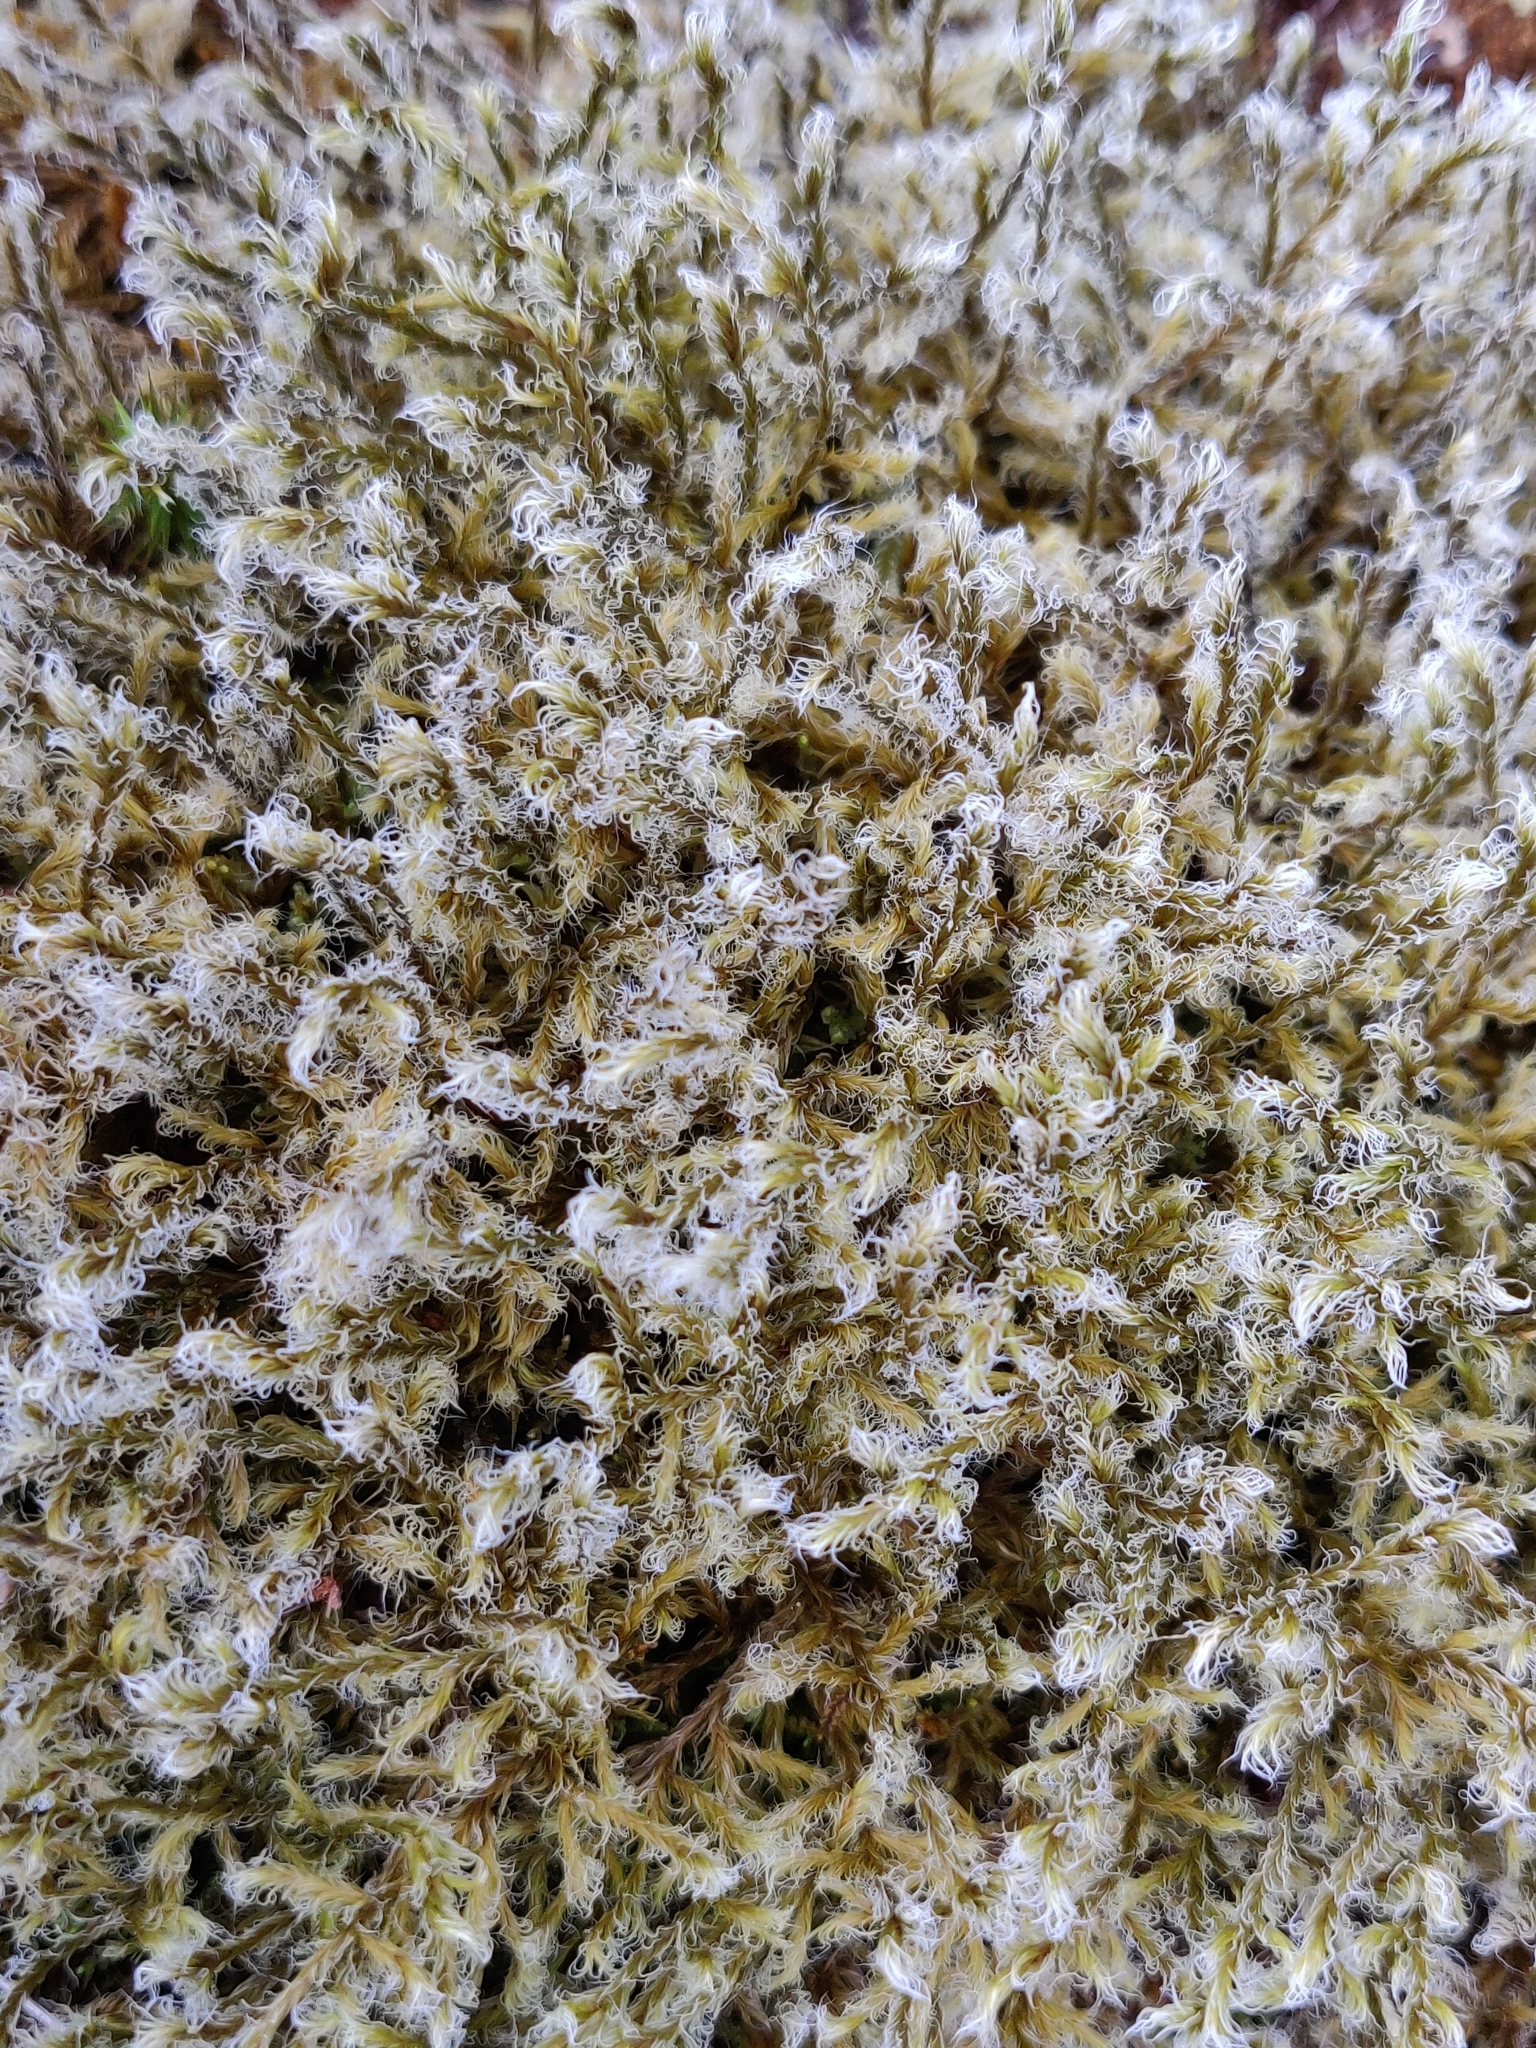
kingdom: Plantae
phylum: Bryophyta
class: Bryopsida
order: Grimmiales
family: Grimmiaceae
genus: Racomitrium
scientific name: Racomitrium lanuginosum
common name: Hoary rock moss
